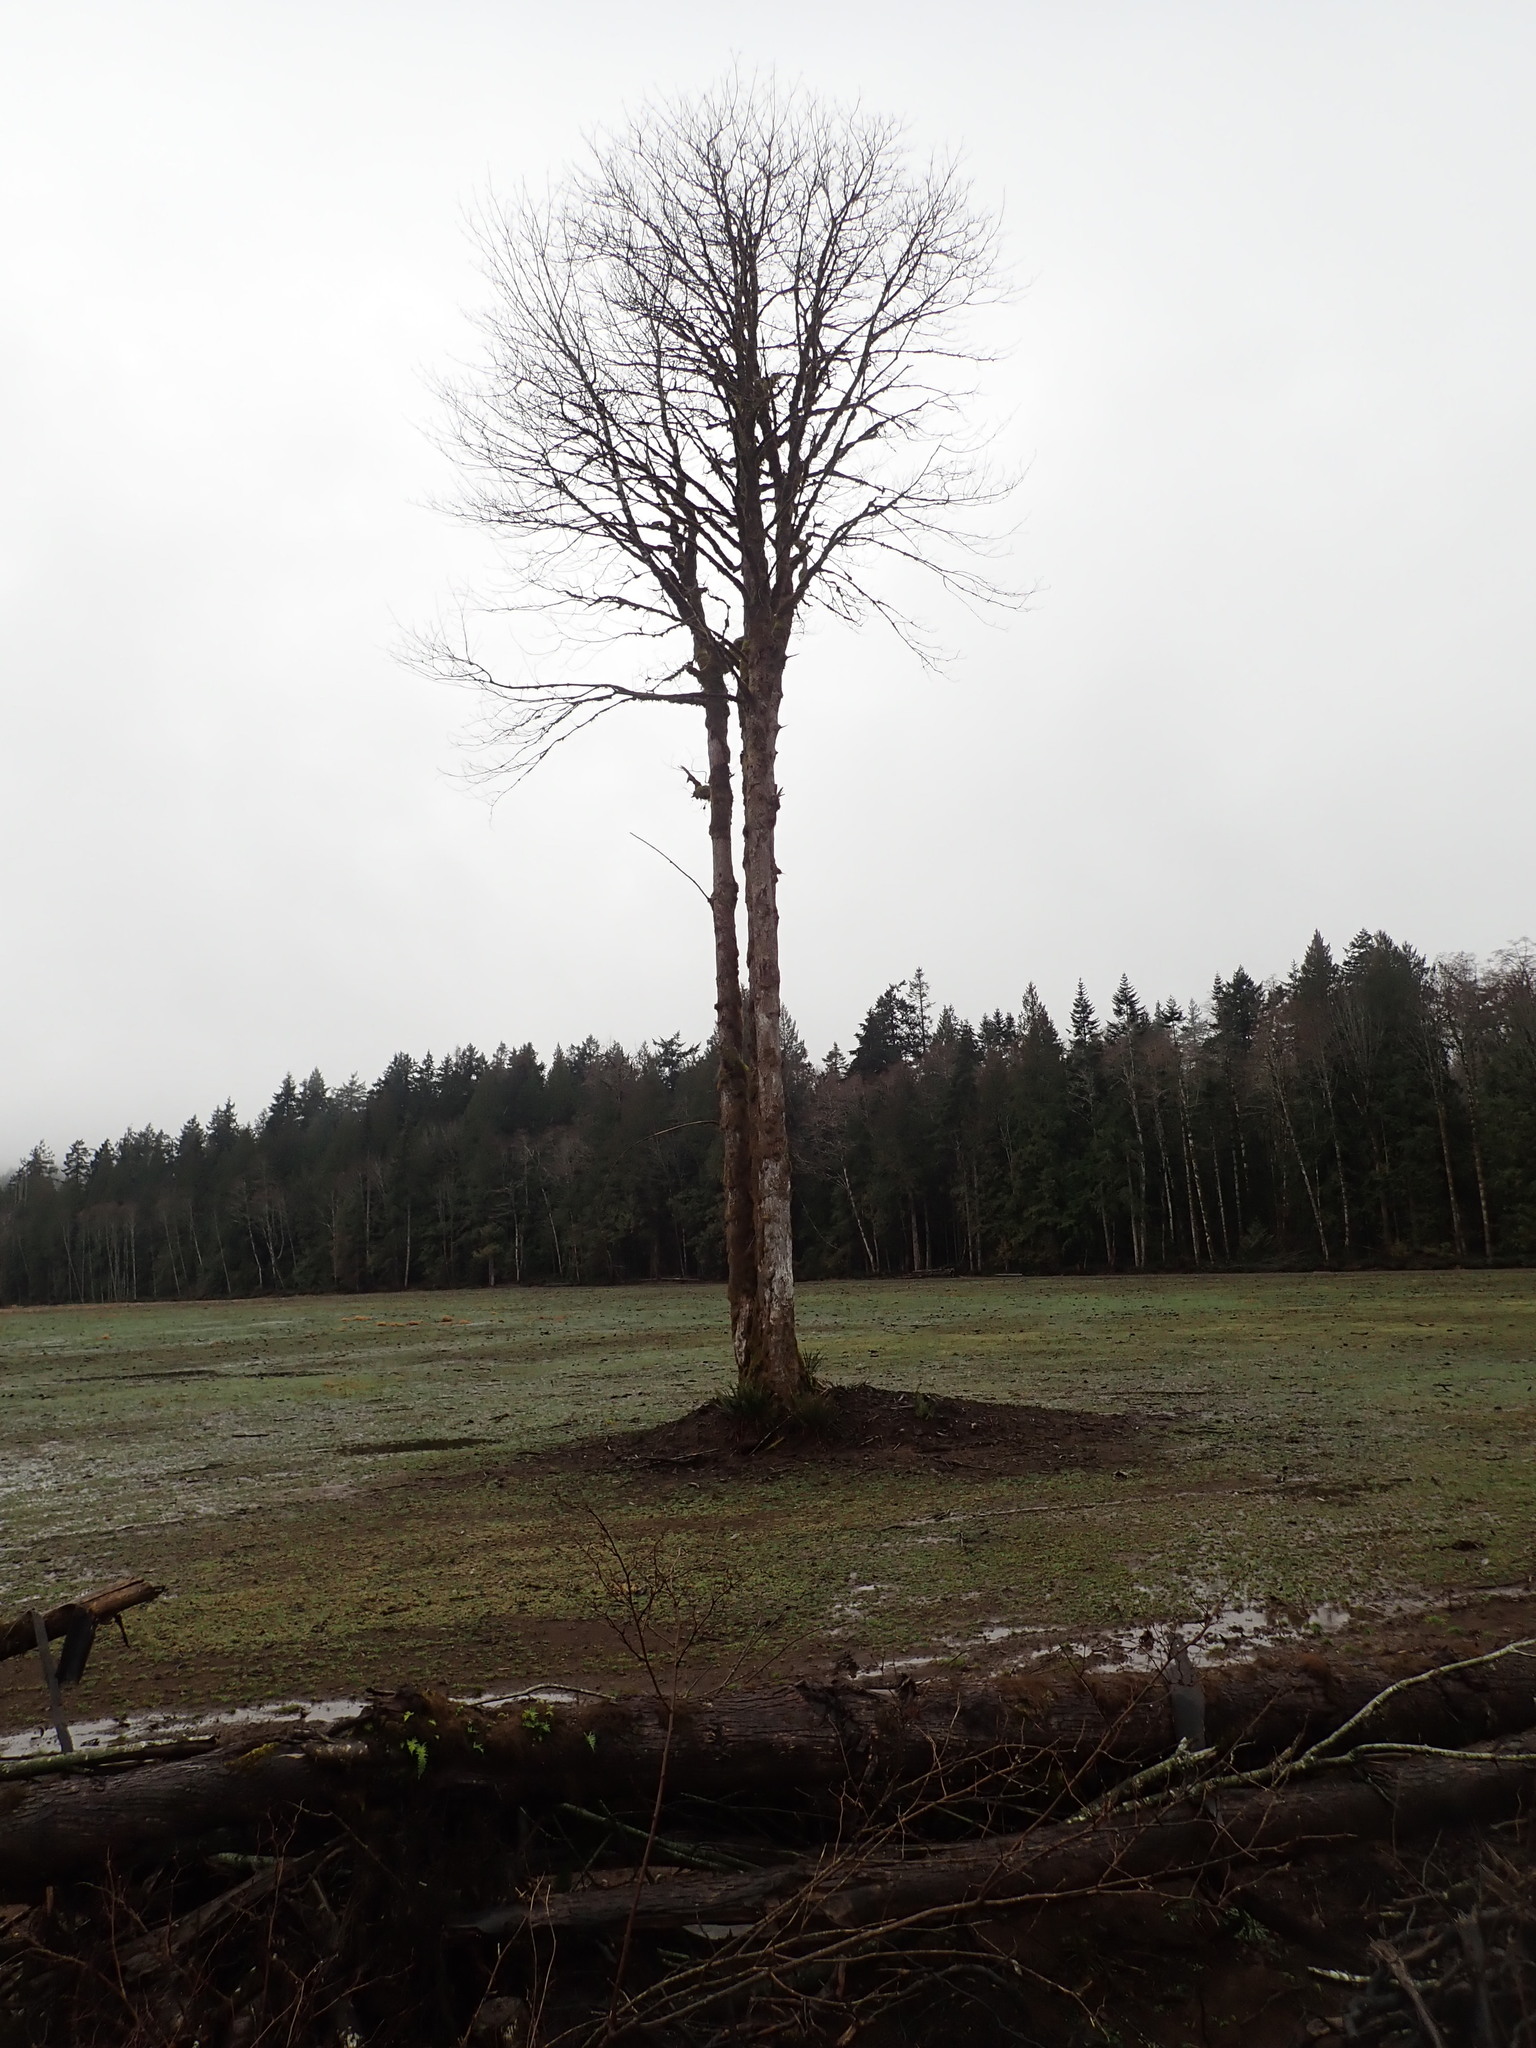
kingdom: Plantae
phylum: Tracheophyta
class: Magnoliopsida
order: Sapindales
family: Sapindaceae
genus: Acer
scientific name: Acer macrophyllum
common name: Oregon maple
